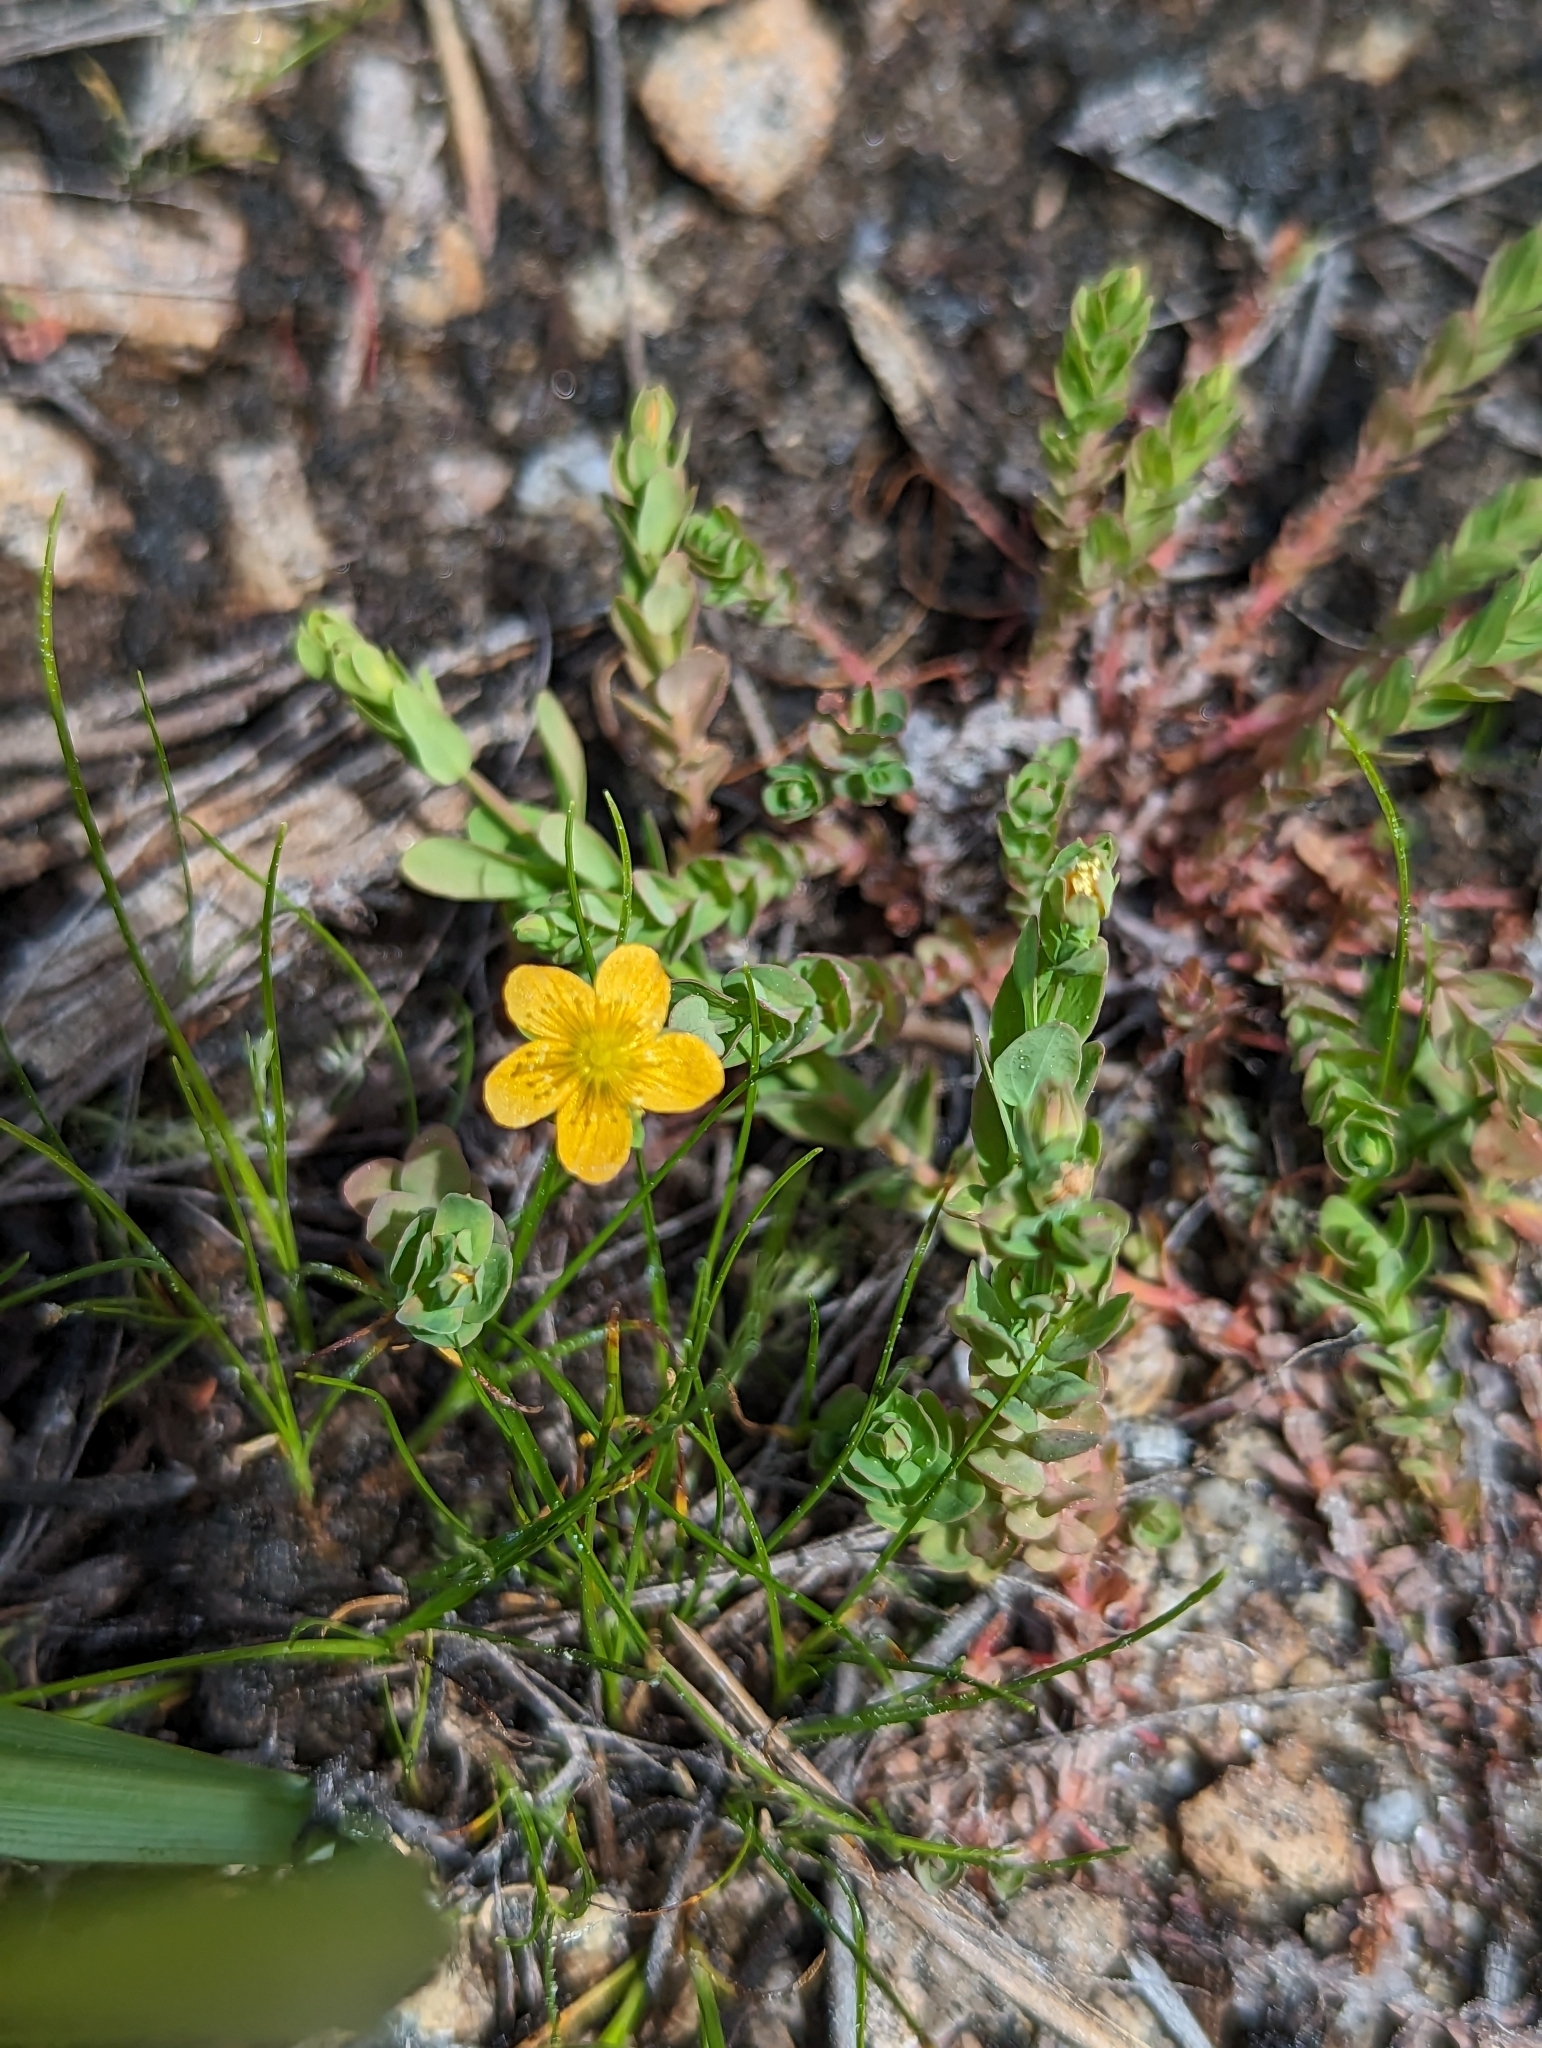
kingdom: Plantae
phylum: Tracheophyta
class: Magnoliopsida
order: Malpighiales
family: Hypericaceae
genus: Hypericum
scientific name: Hypericum anagalloides
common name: Bog st. john's-wort
